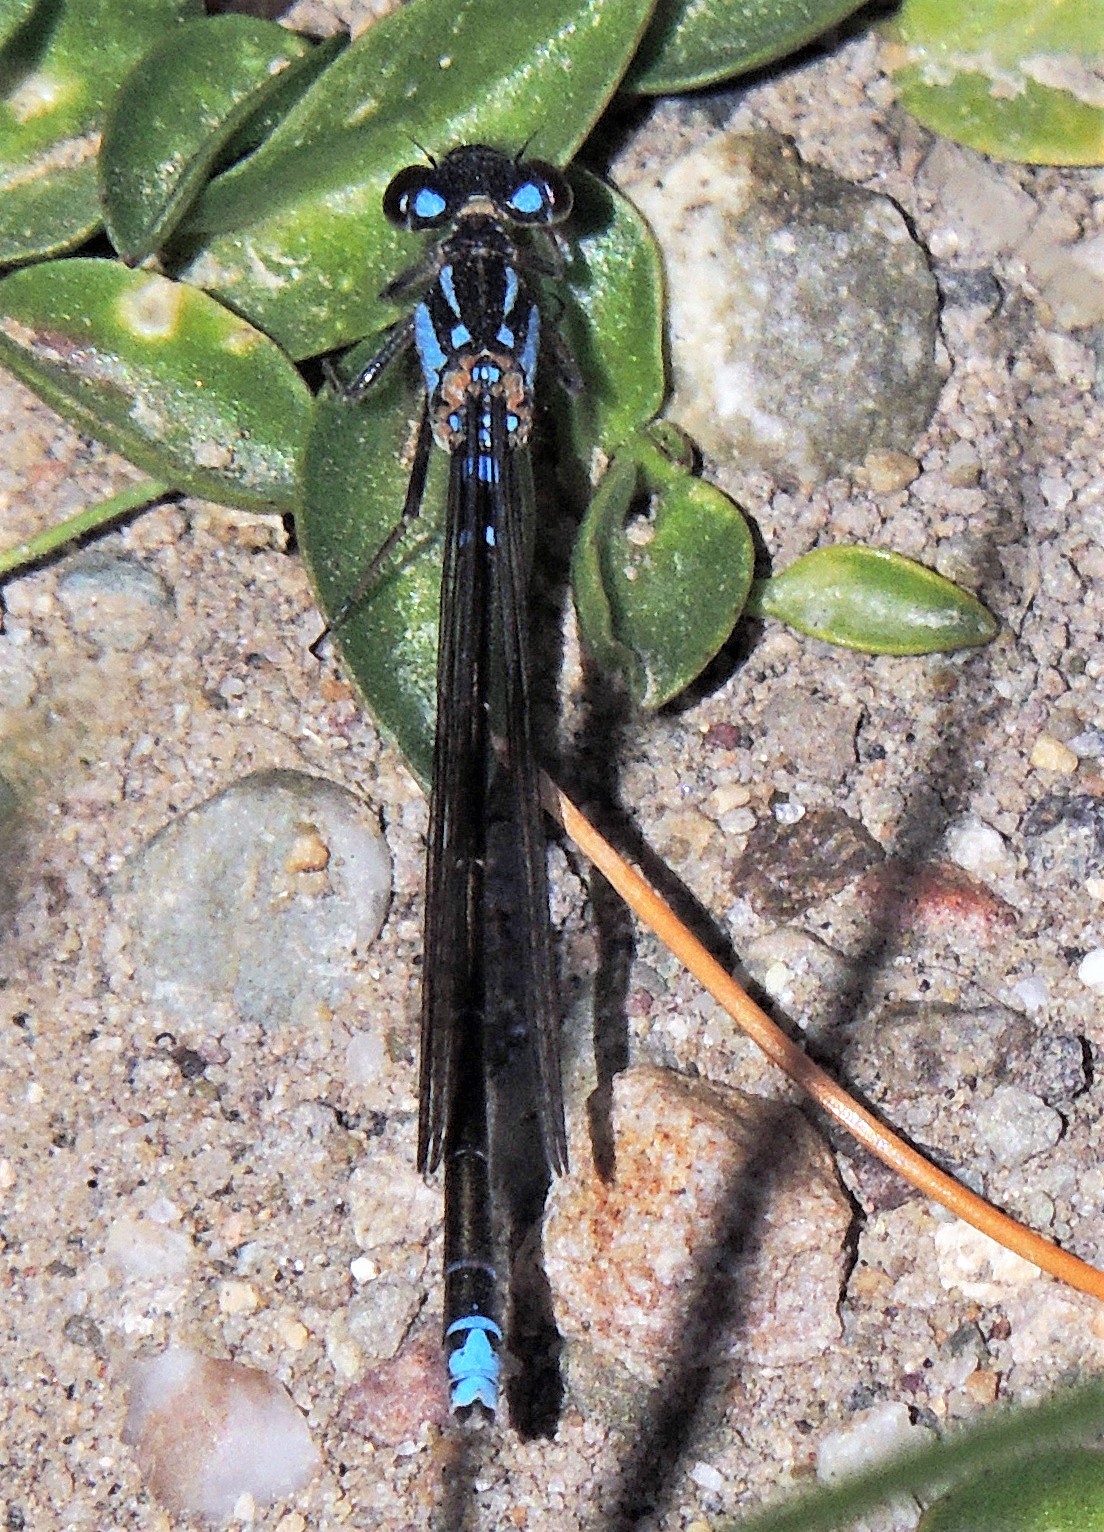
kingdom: Animalia
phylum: Arthropoda
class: Insecta
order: Odonata
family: Coenagrionidae
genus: Cyanallagma
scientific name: Cyanallagma interruptum
